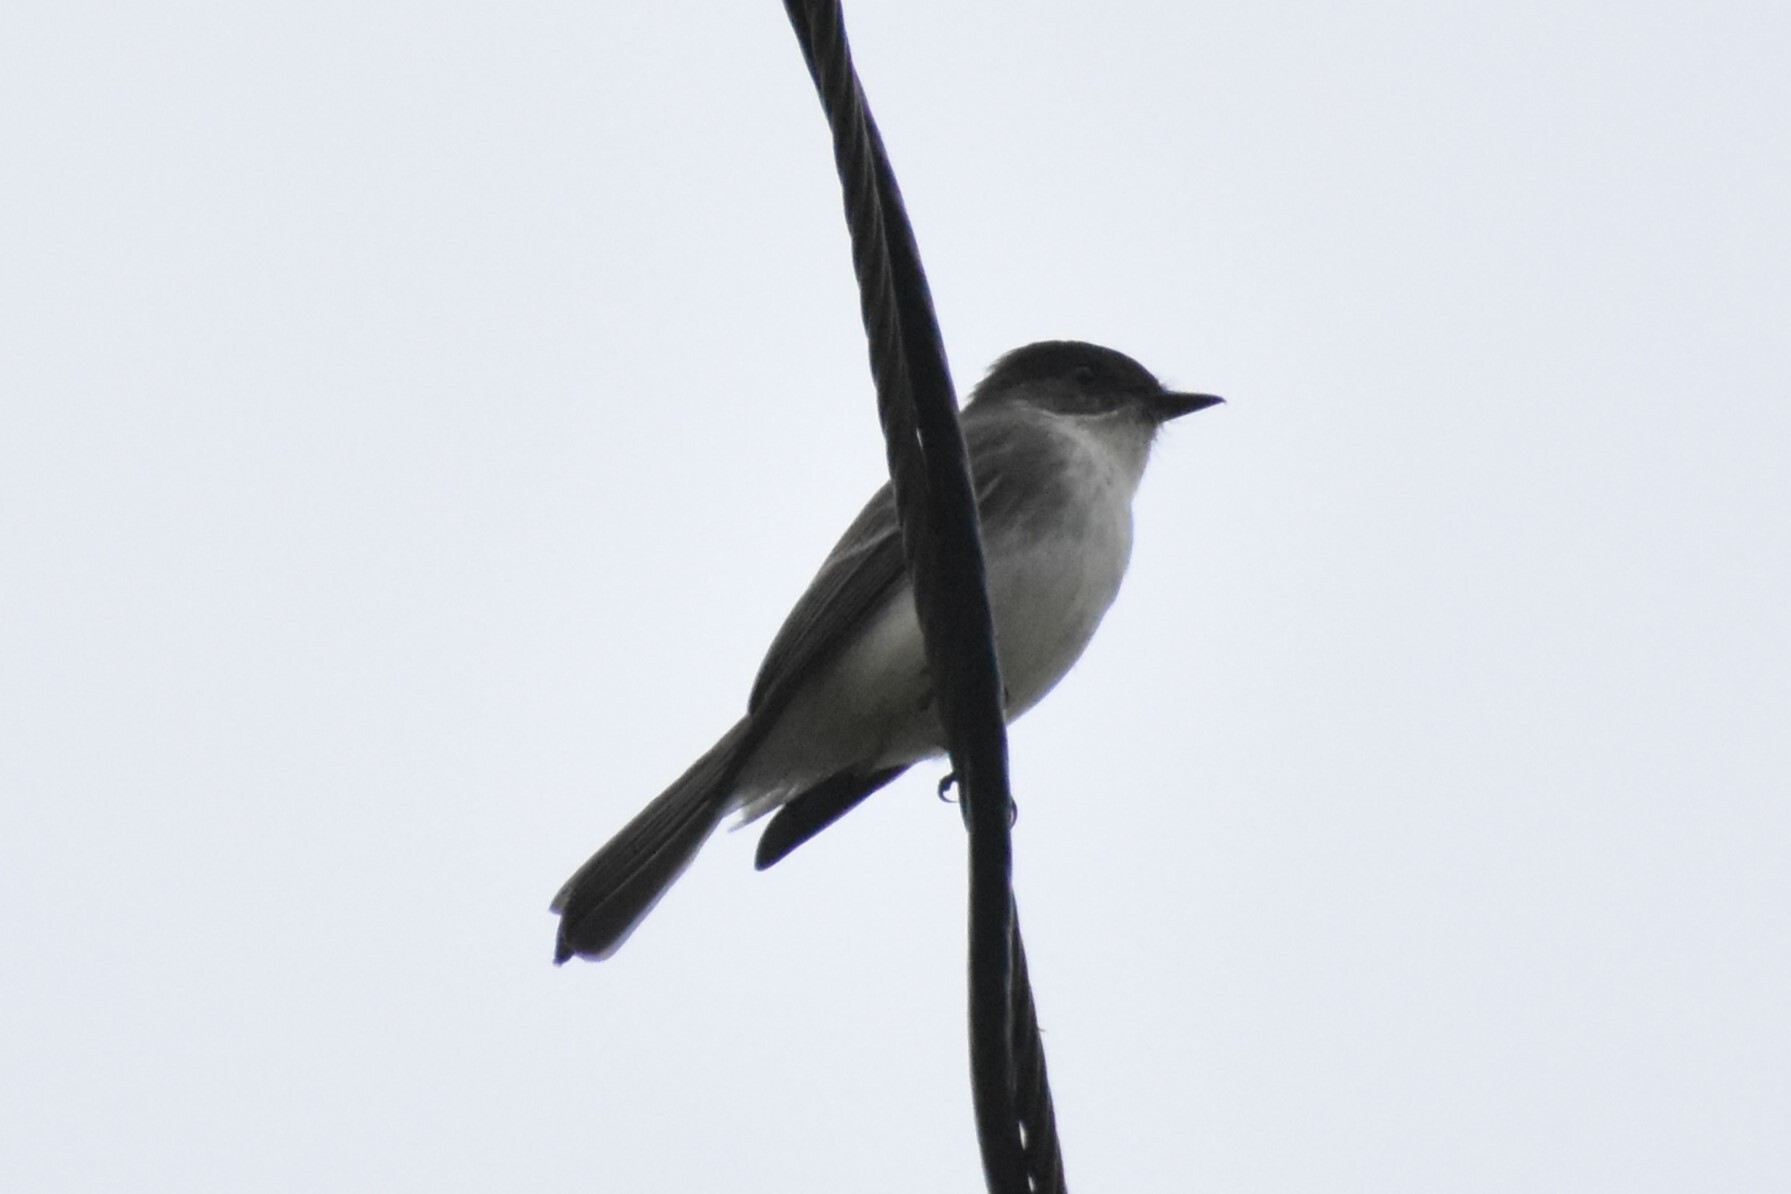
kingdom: Animalia
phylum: Chordata
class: Aves
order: Passeriformes
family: Tyrannidae
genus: Sayornis
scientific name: Sayornis phoebe
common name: Eastern phoebe
